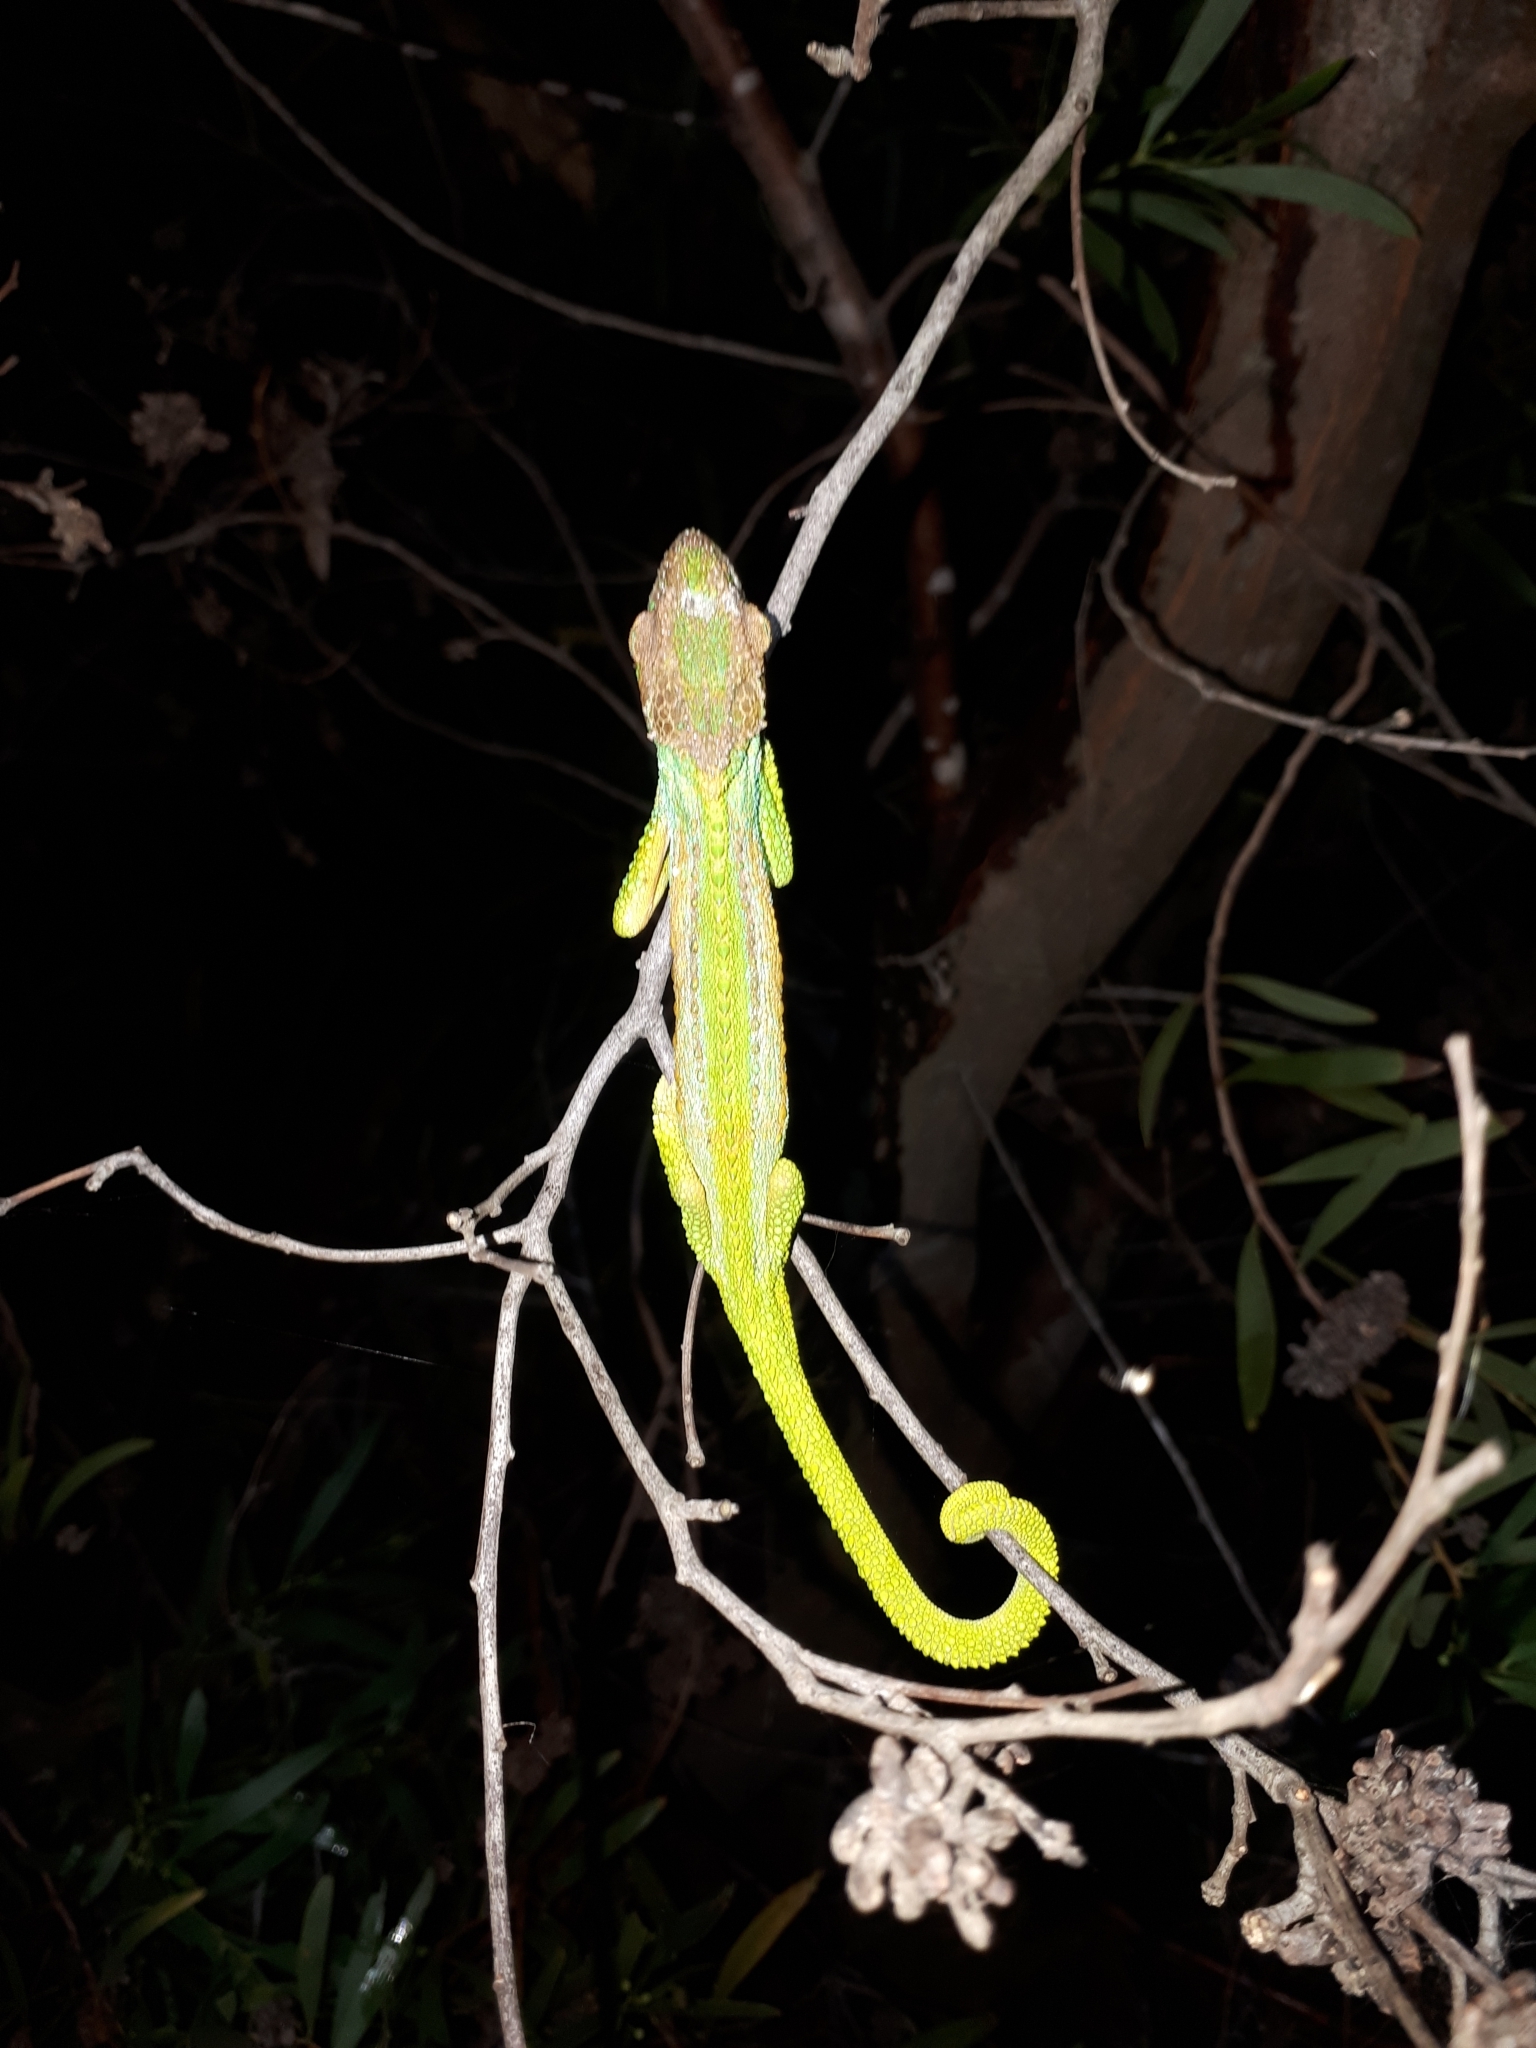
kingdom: Animalia
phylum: Chordata
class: Squamata
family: Chamaeleonidae
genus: Bradypodion
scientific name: Bradypodion pumilum
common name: Cape dwarf chameleon
